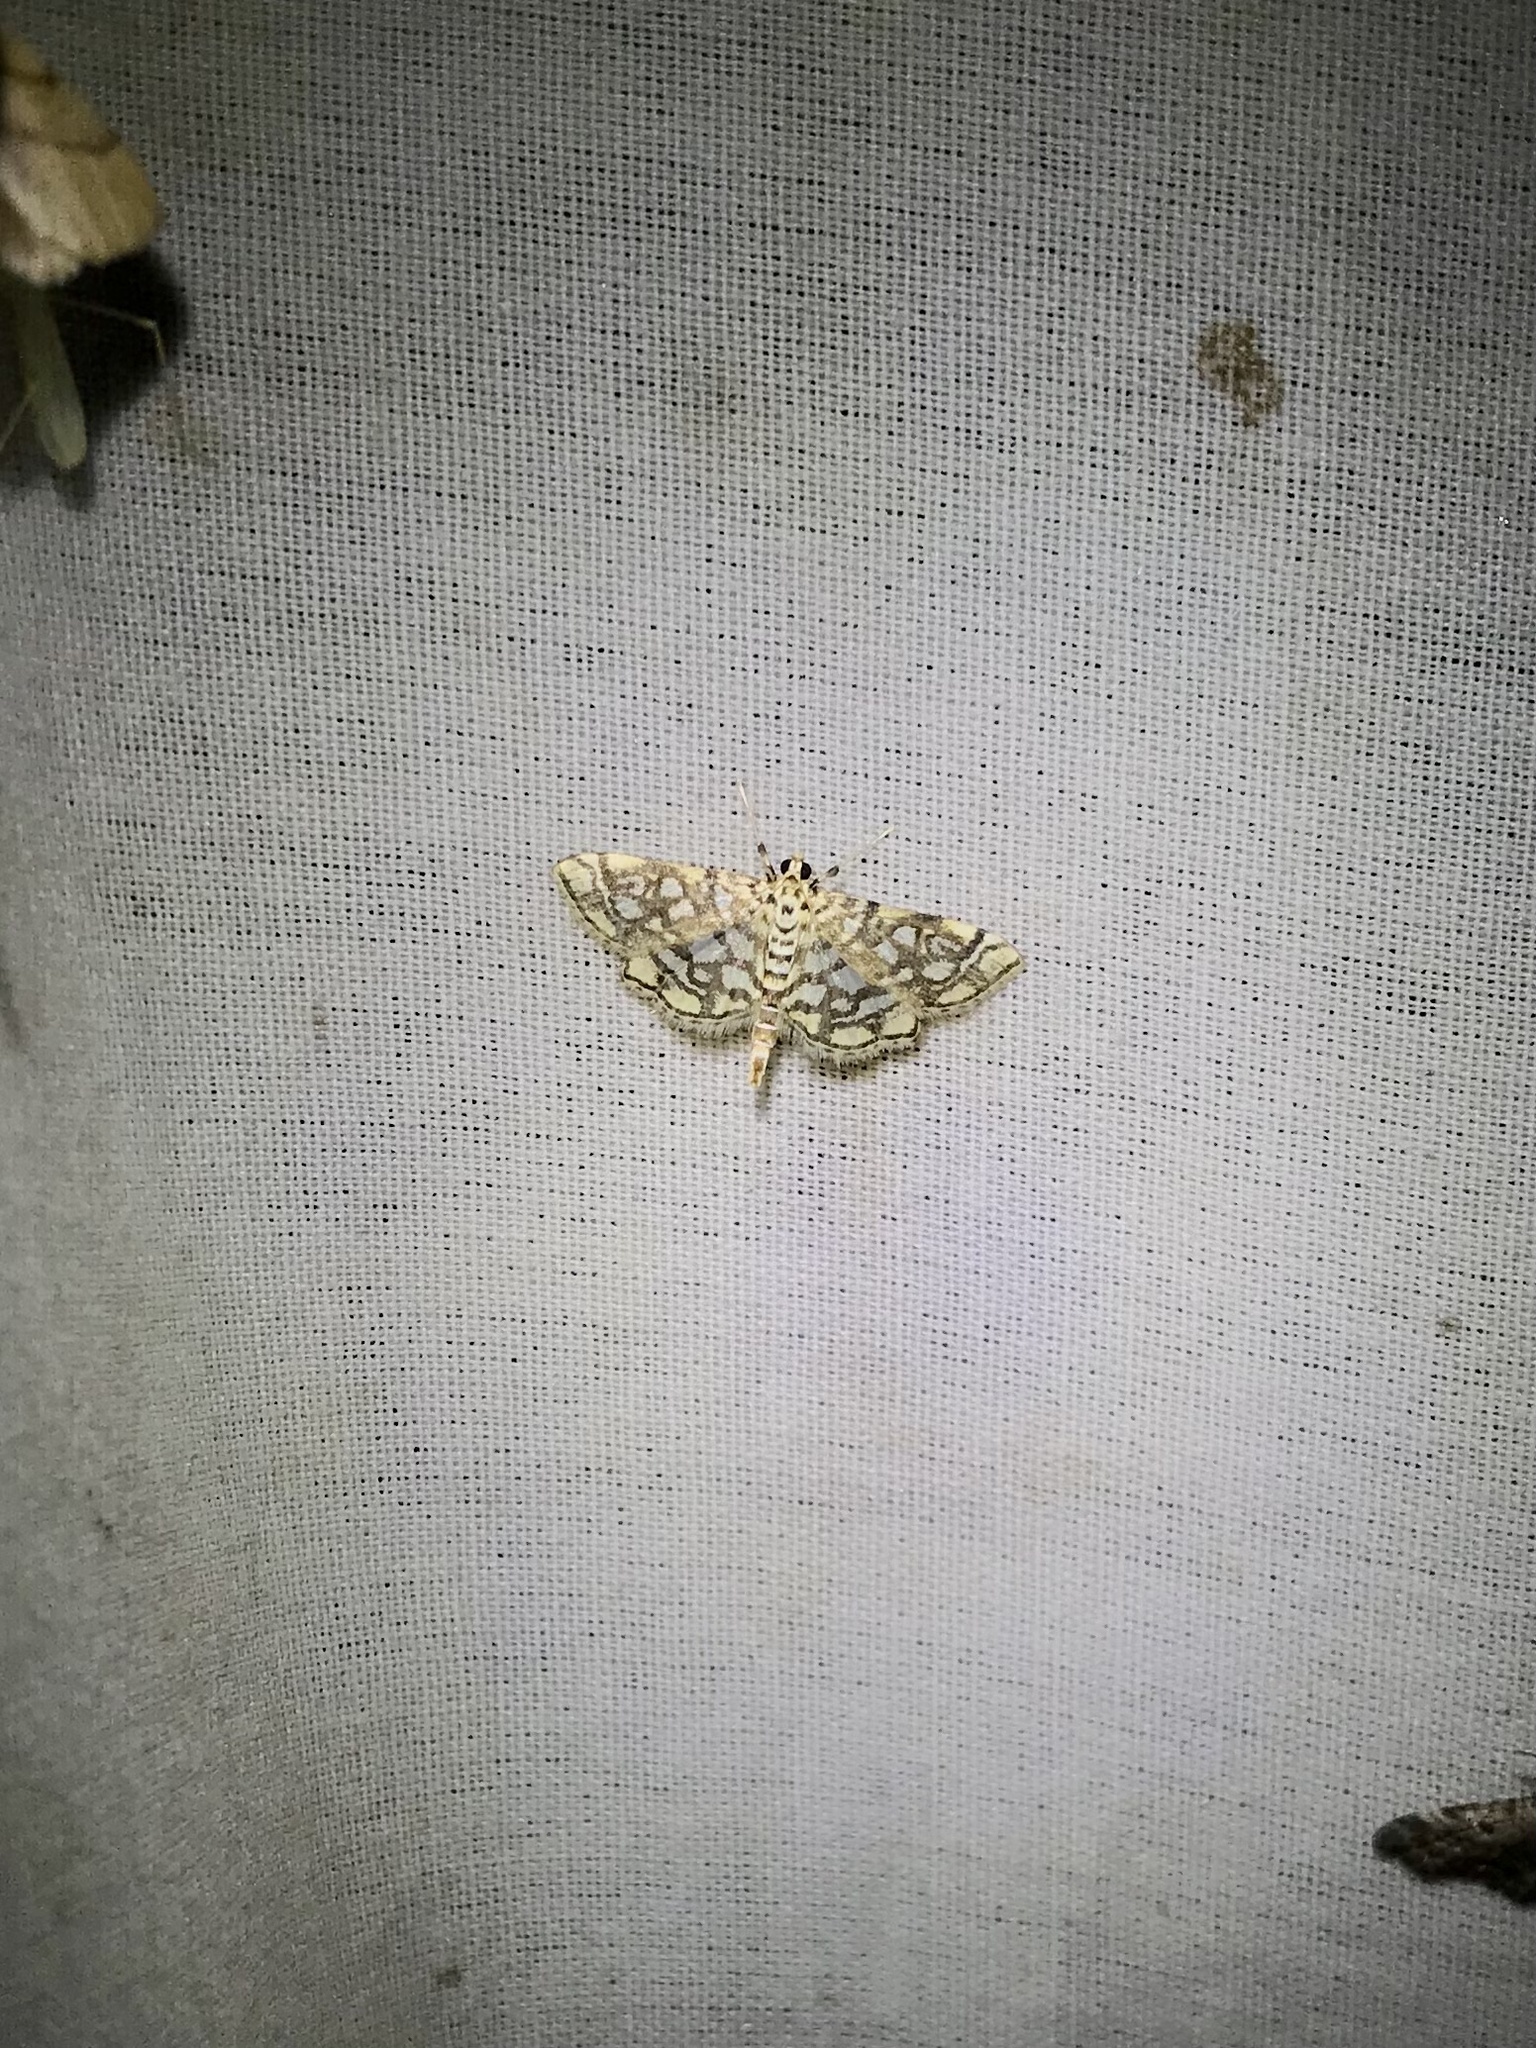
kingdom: Animalia
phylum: Arthropoda
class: Insecta
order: Lepidoptera
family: Crambidae
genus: Lygropia
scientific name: Lygropia rivulalis
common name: Bog lygropia moth
